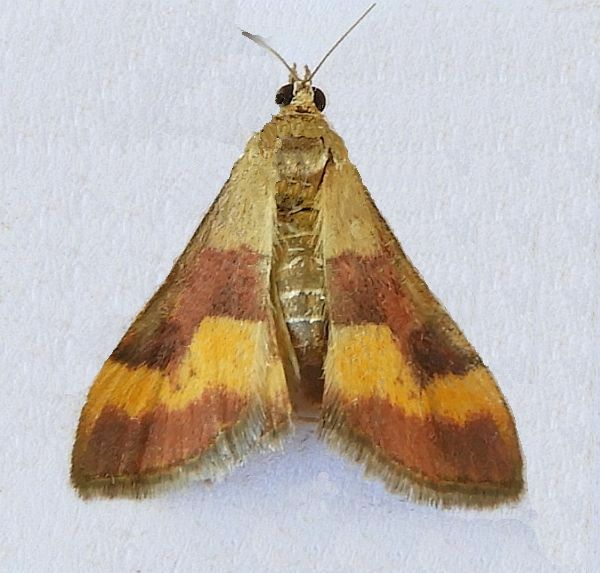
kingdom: Animalia
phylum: Arthropoda
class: Insecta
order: Lepidoptera
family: Crambidae
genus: Pyrausta
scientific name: Pyrausta flavofascialis
